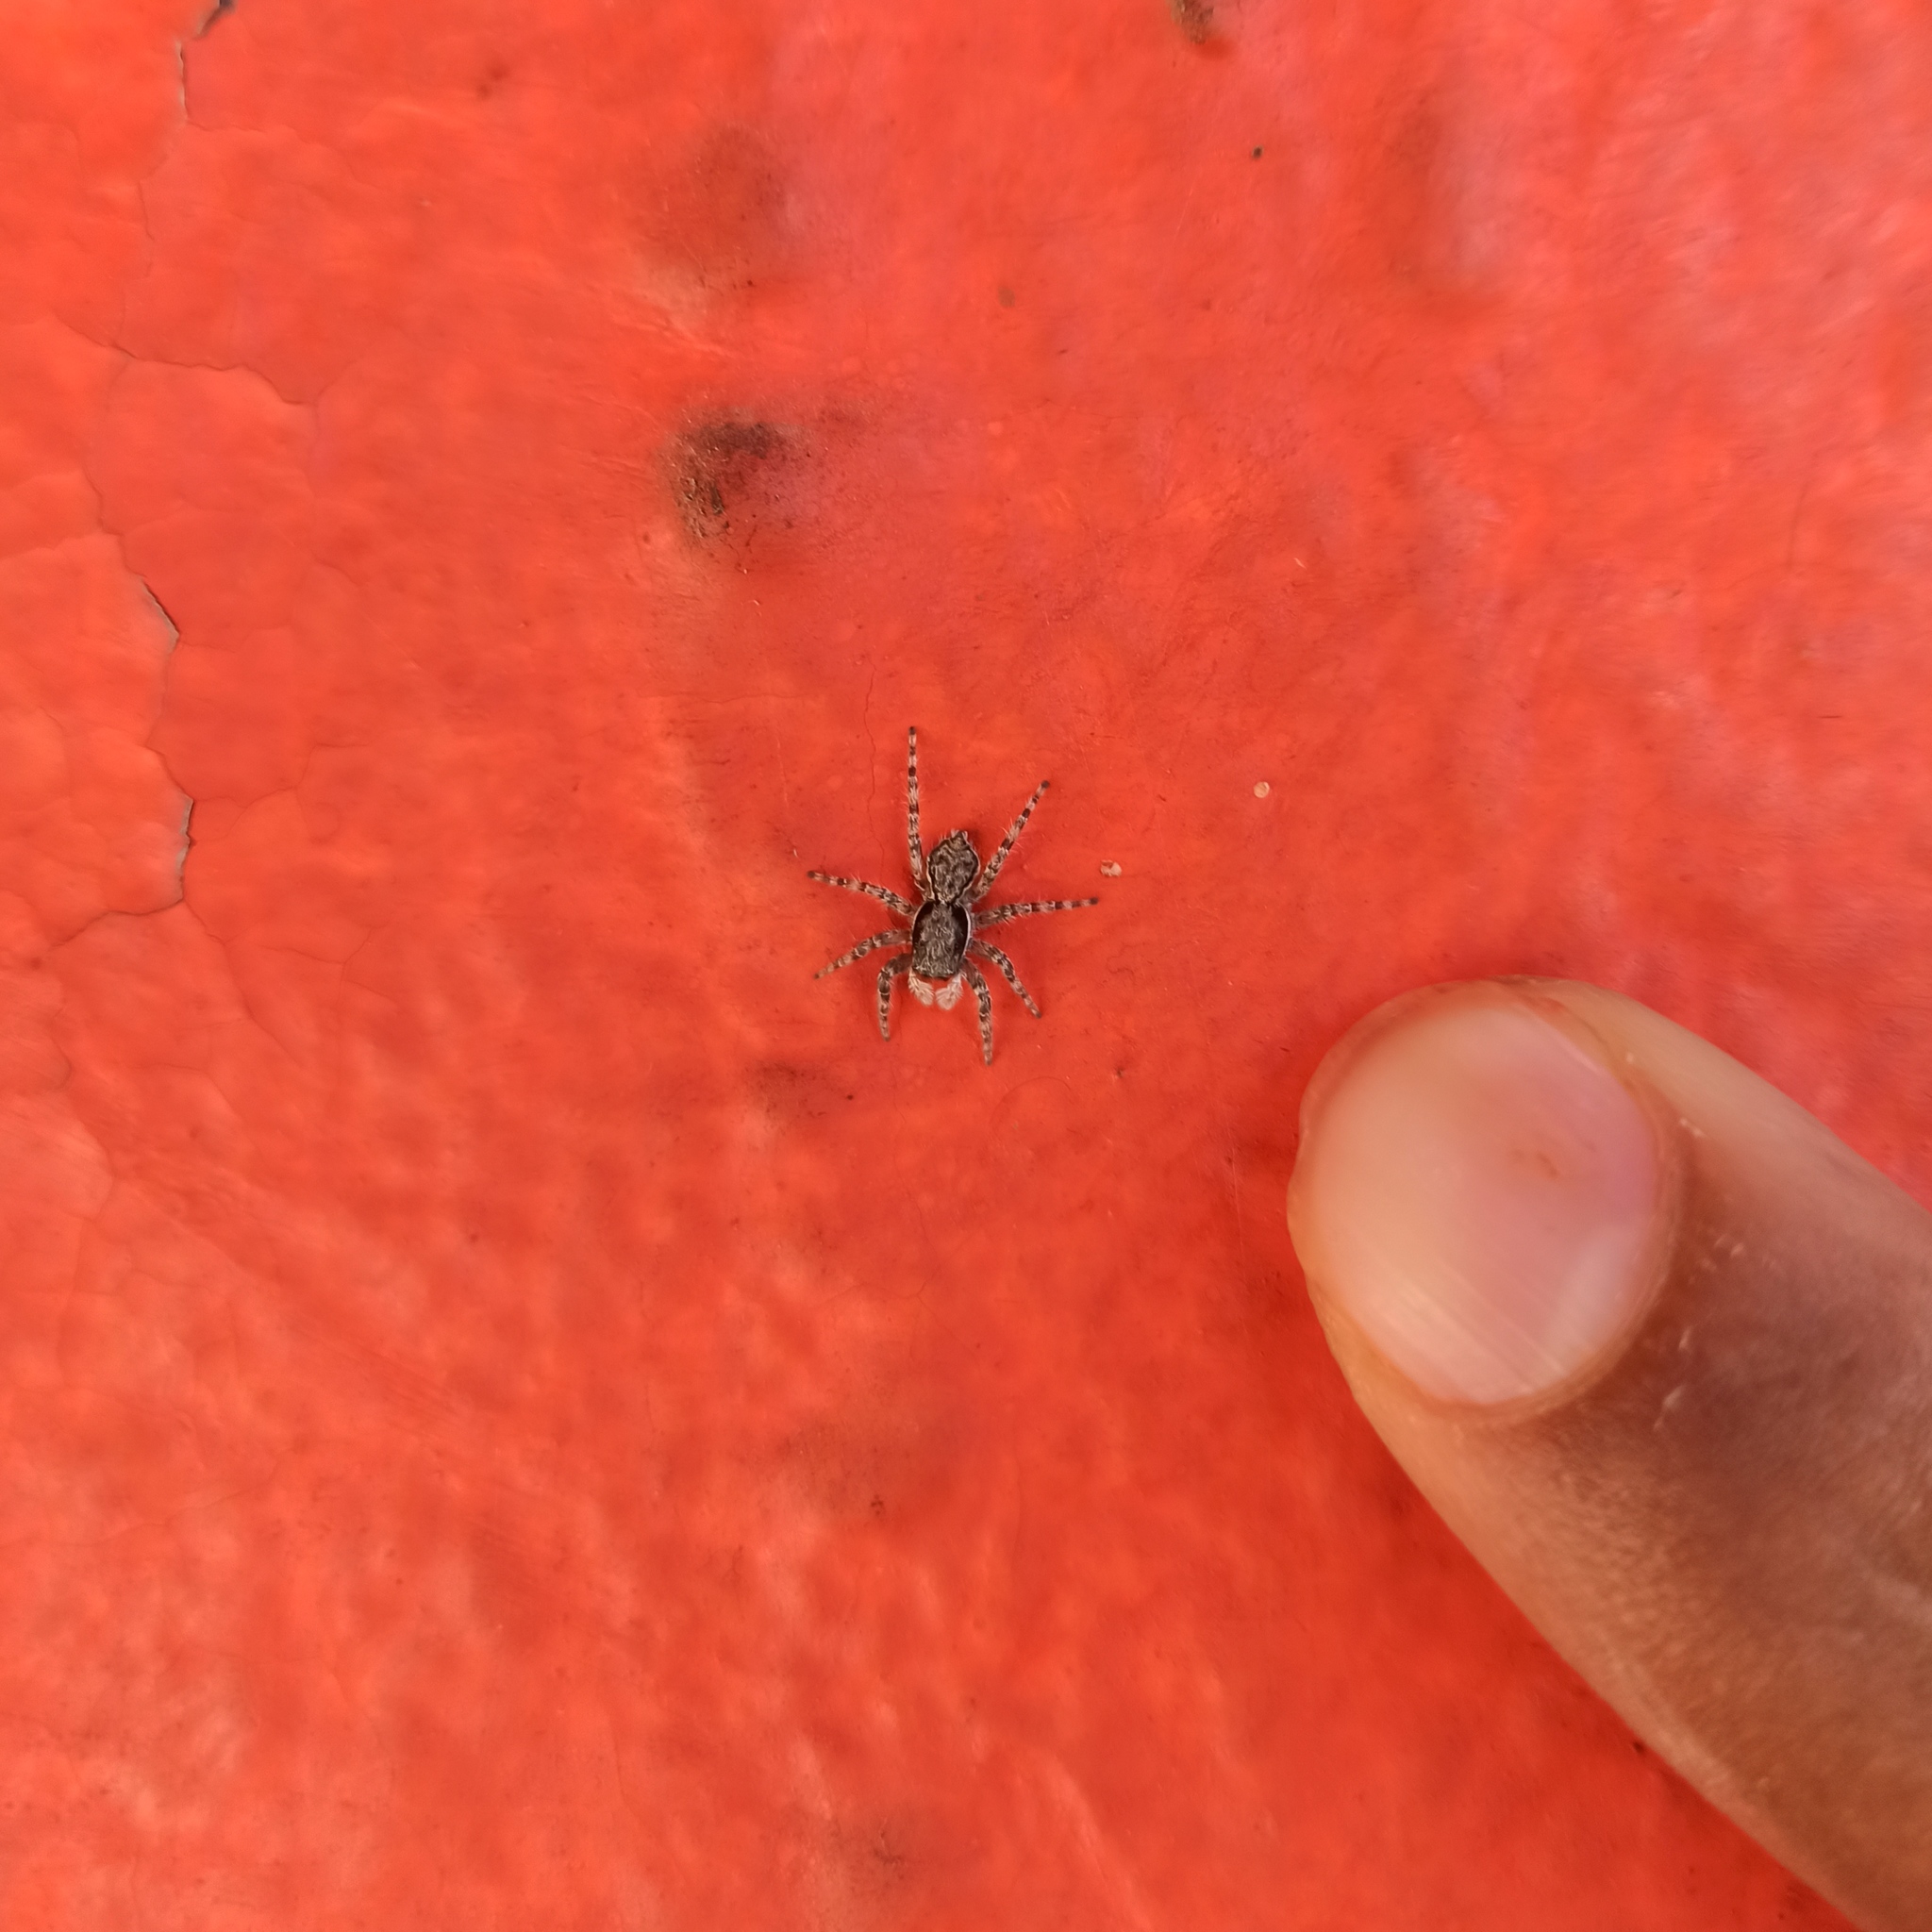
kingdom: Animalia
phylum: Arthropoda
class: Arachnida
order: Araneae
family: Salticidae
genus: Menemerus
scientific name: Menemerus bivittatus
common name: Gray wall jumper
